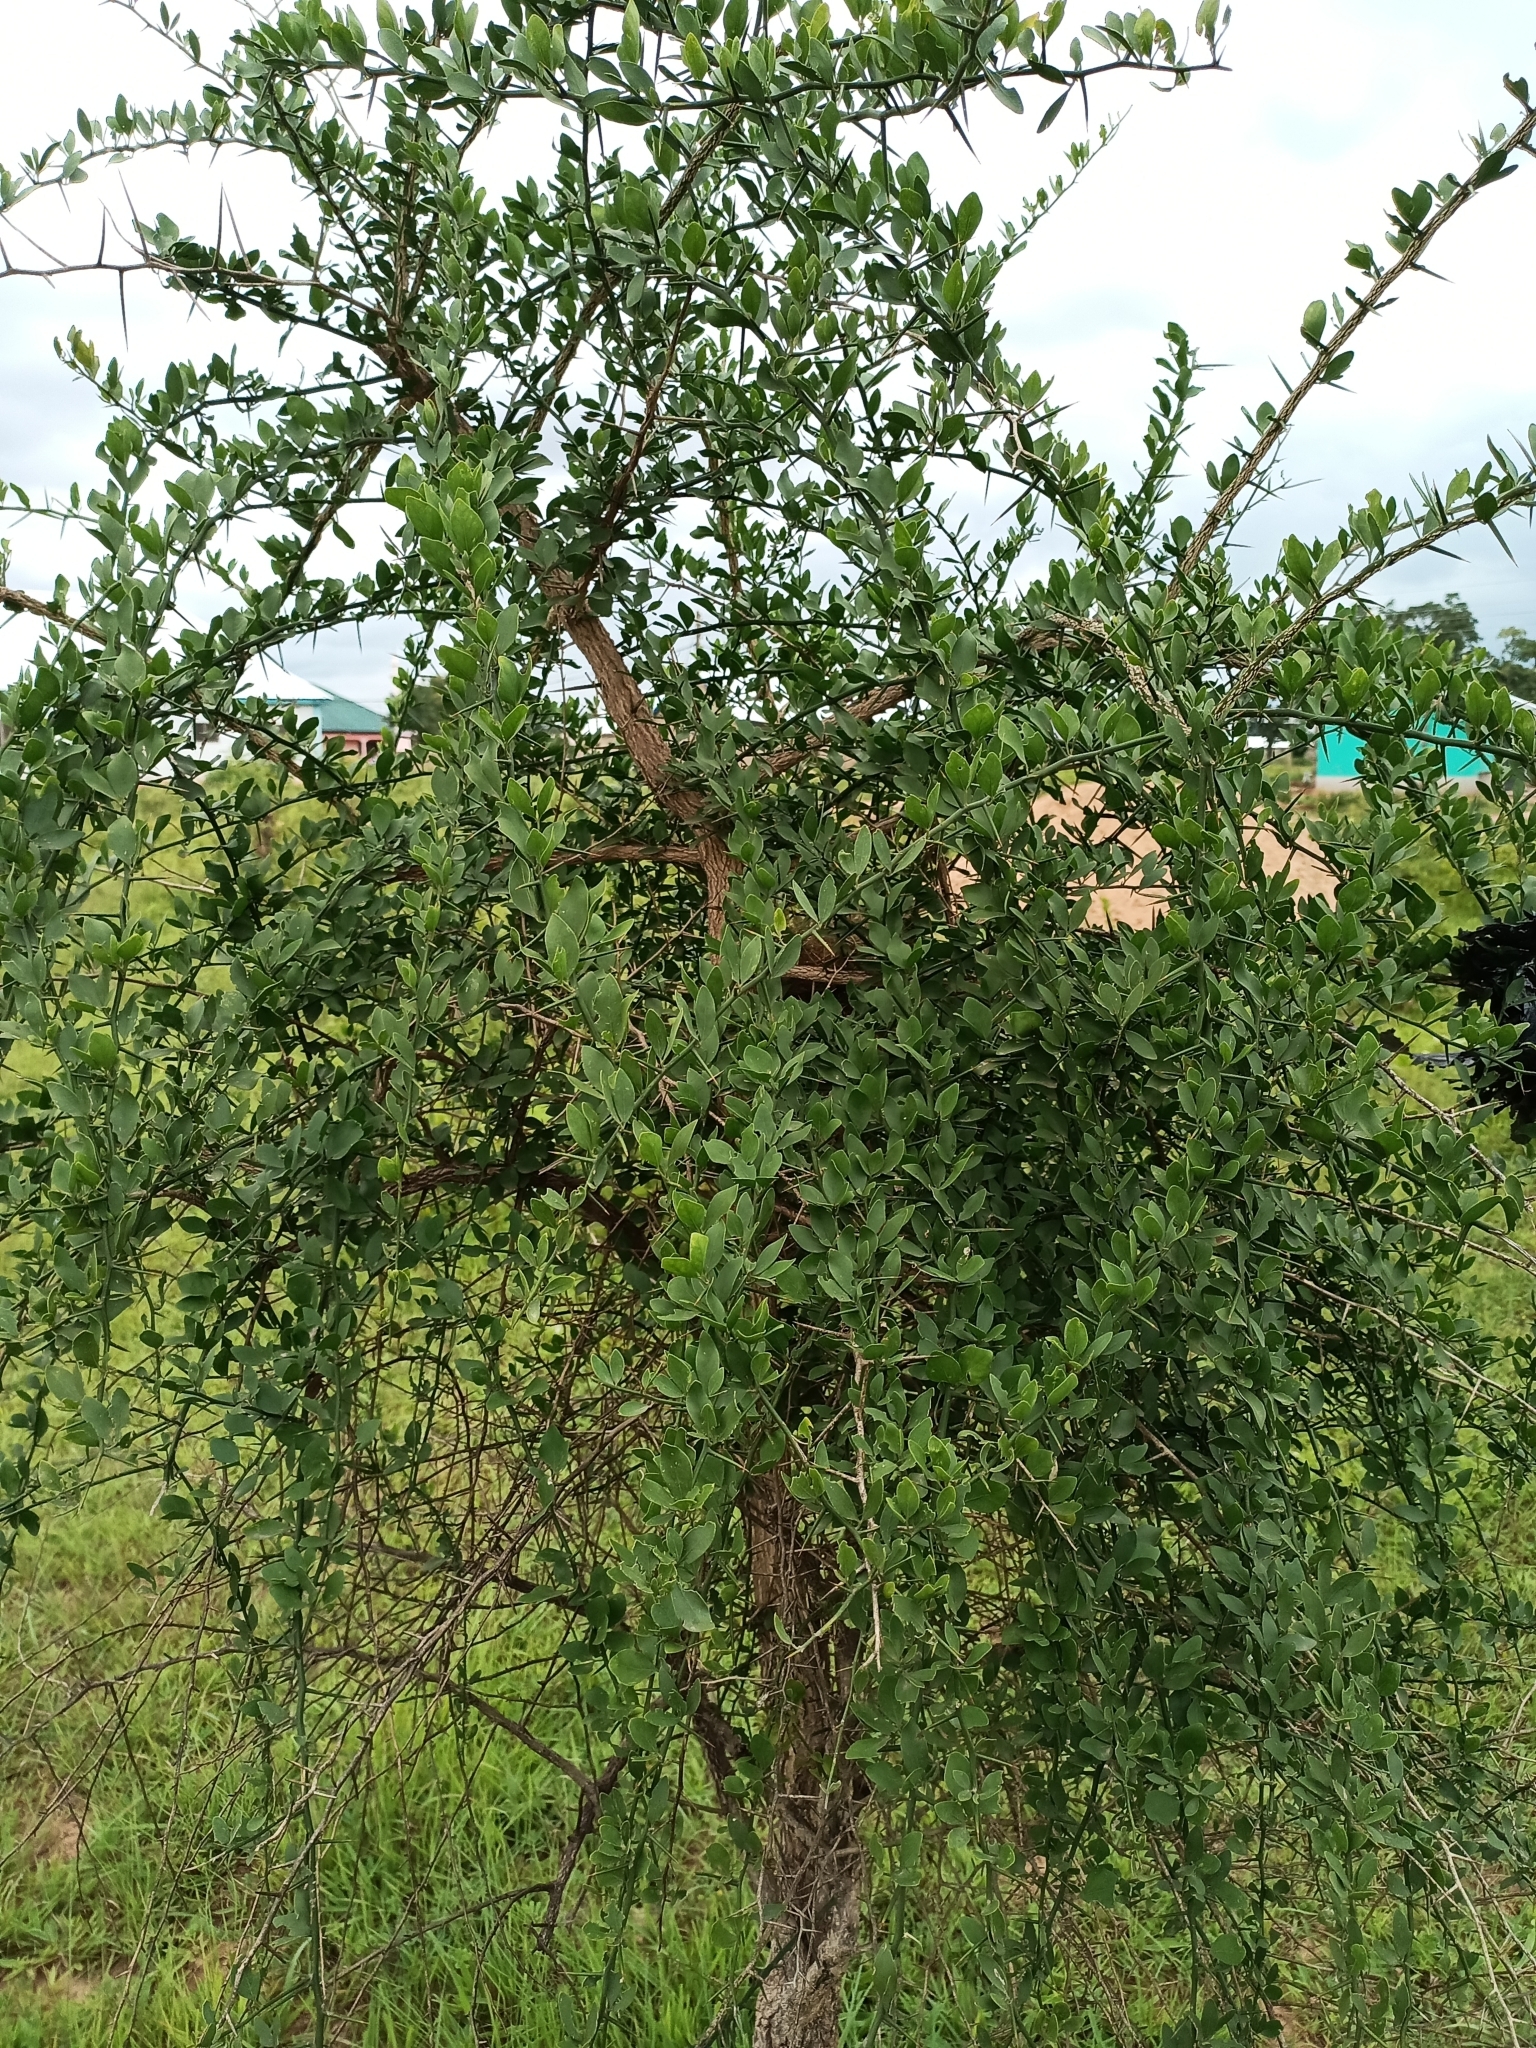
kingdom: Plantae
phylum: Tracheophyta
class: Magnoliopsida
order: Zygophyllales
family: Zygophyllaceae
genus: Balanites
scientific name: Balanites aegyptiaca
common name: Balanites
